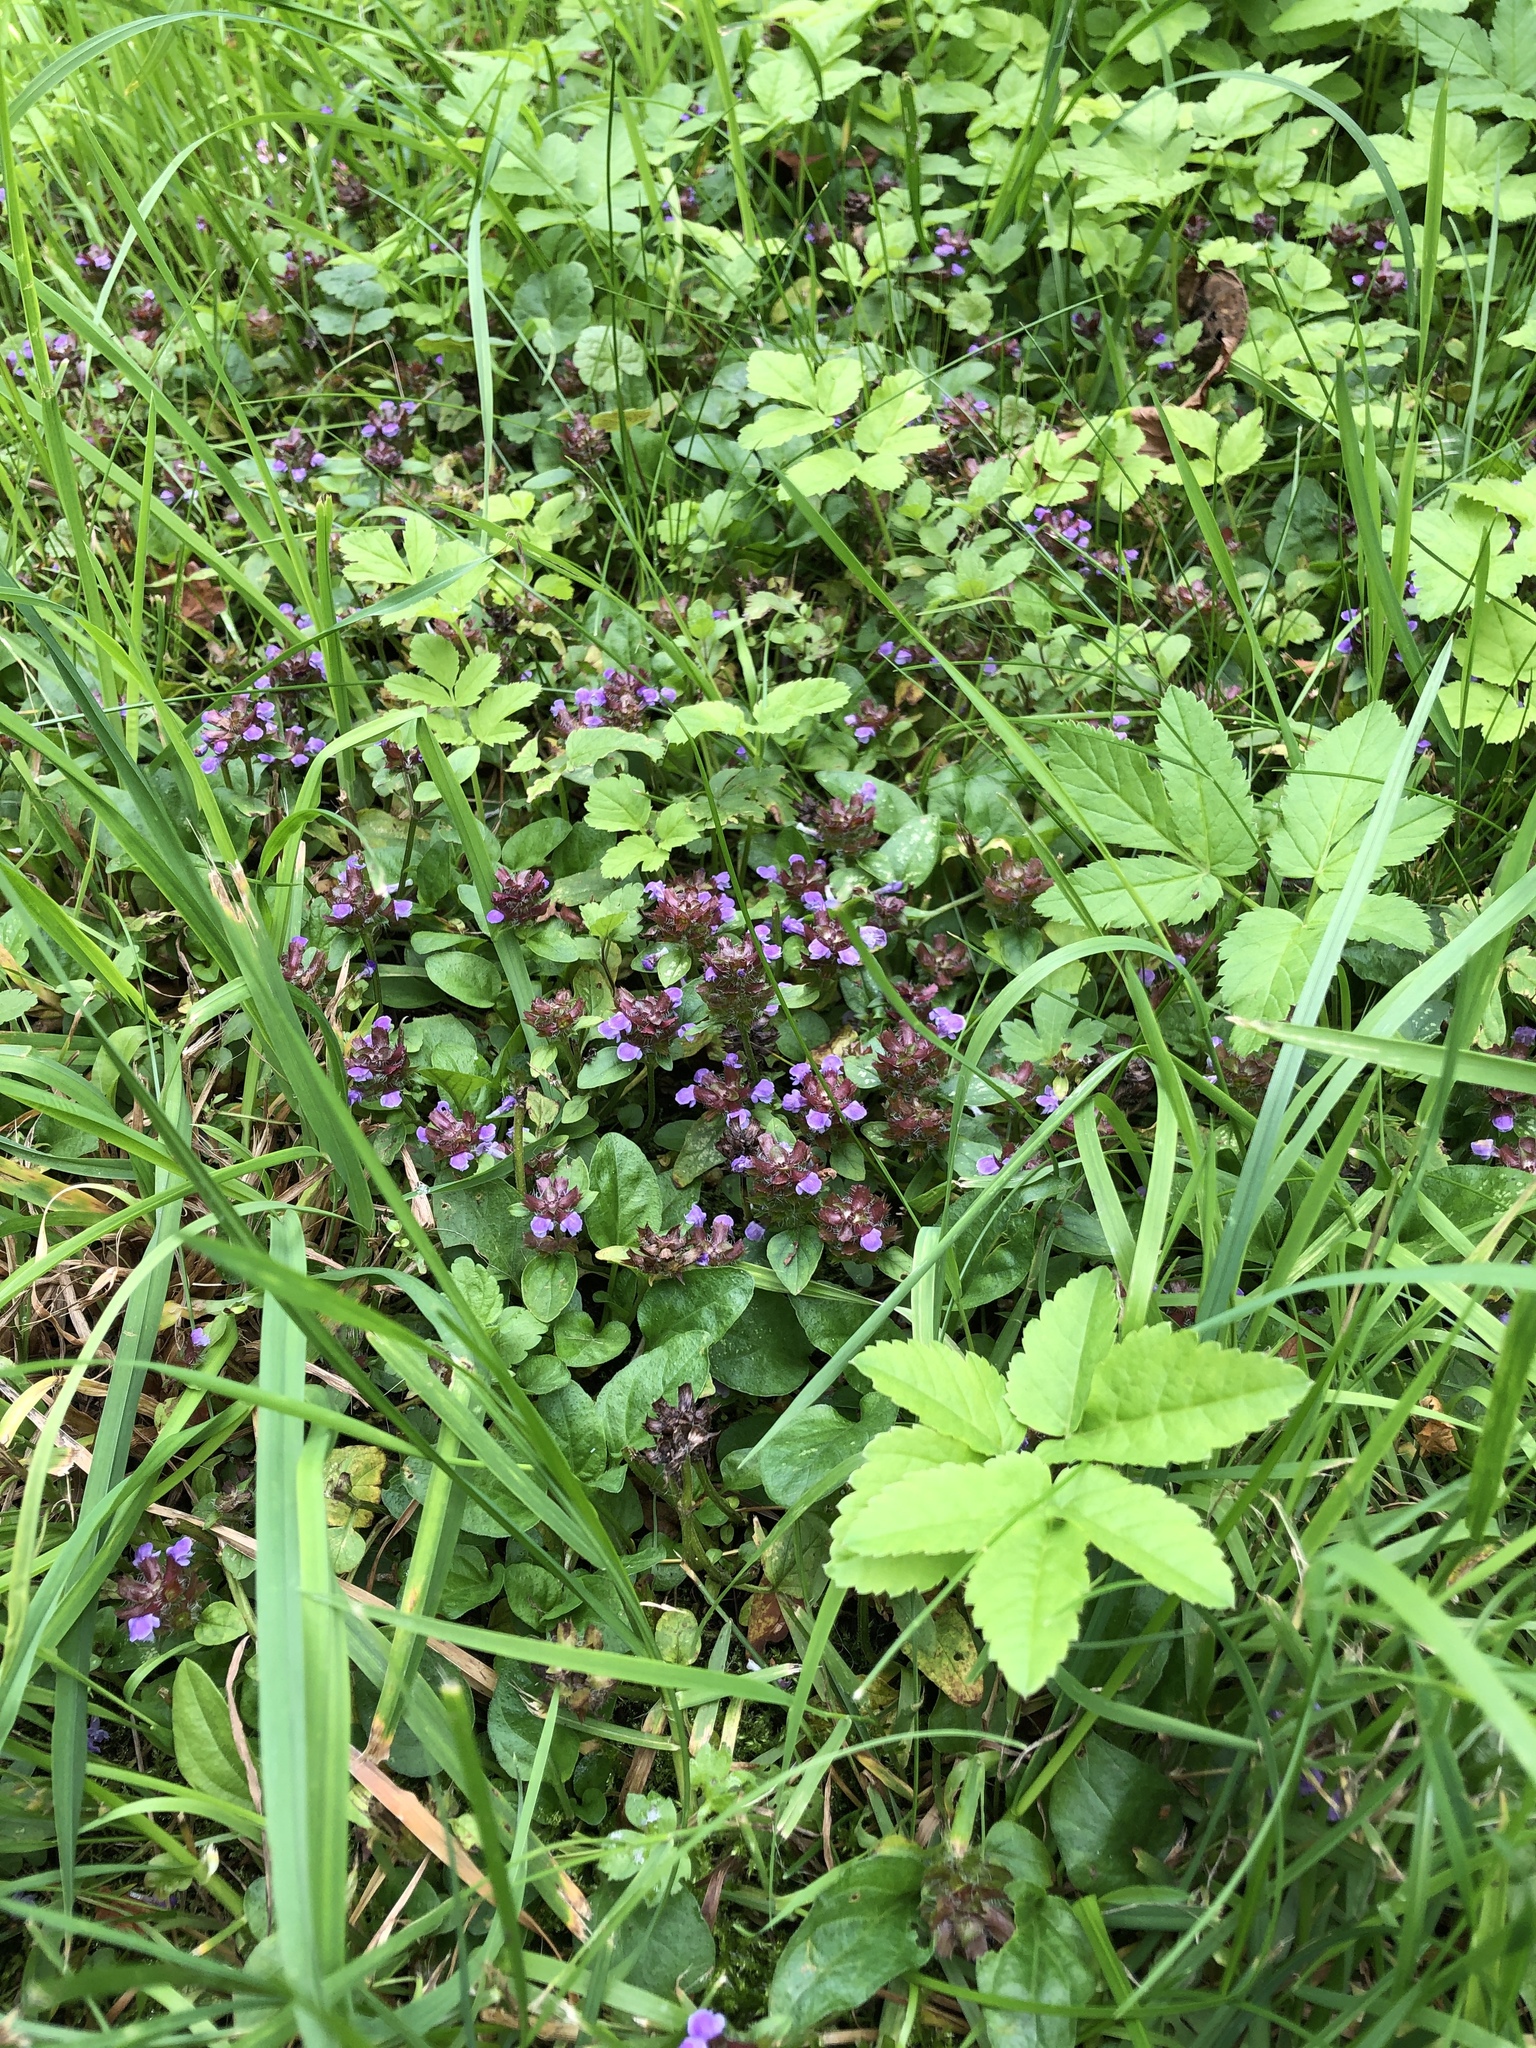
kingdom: Plantae
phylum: Tracheophyta
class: Magnoliopsida
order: Lamiales
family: Lamiaceae
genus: Prunella
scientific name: Prunella vulgaris
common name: Heal-all
